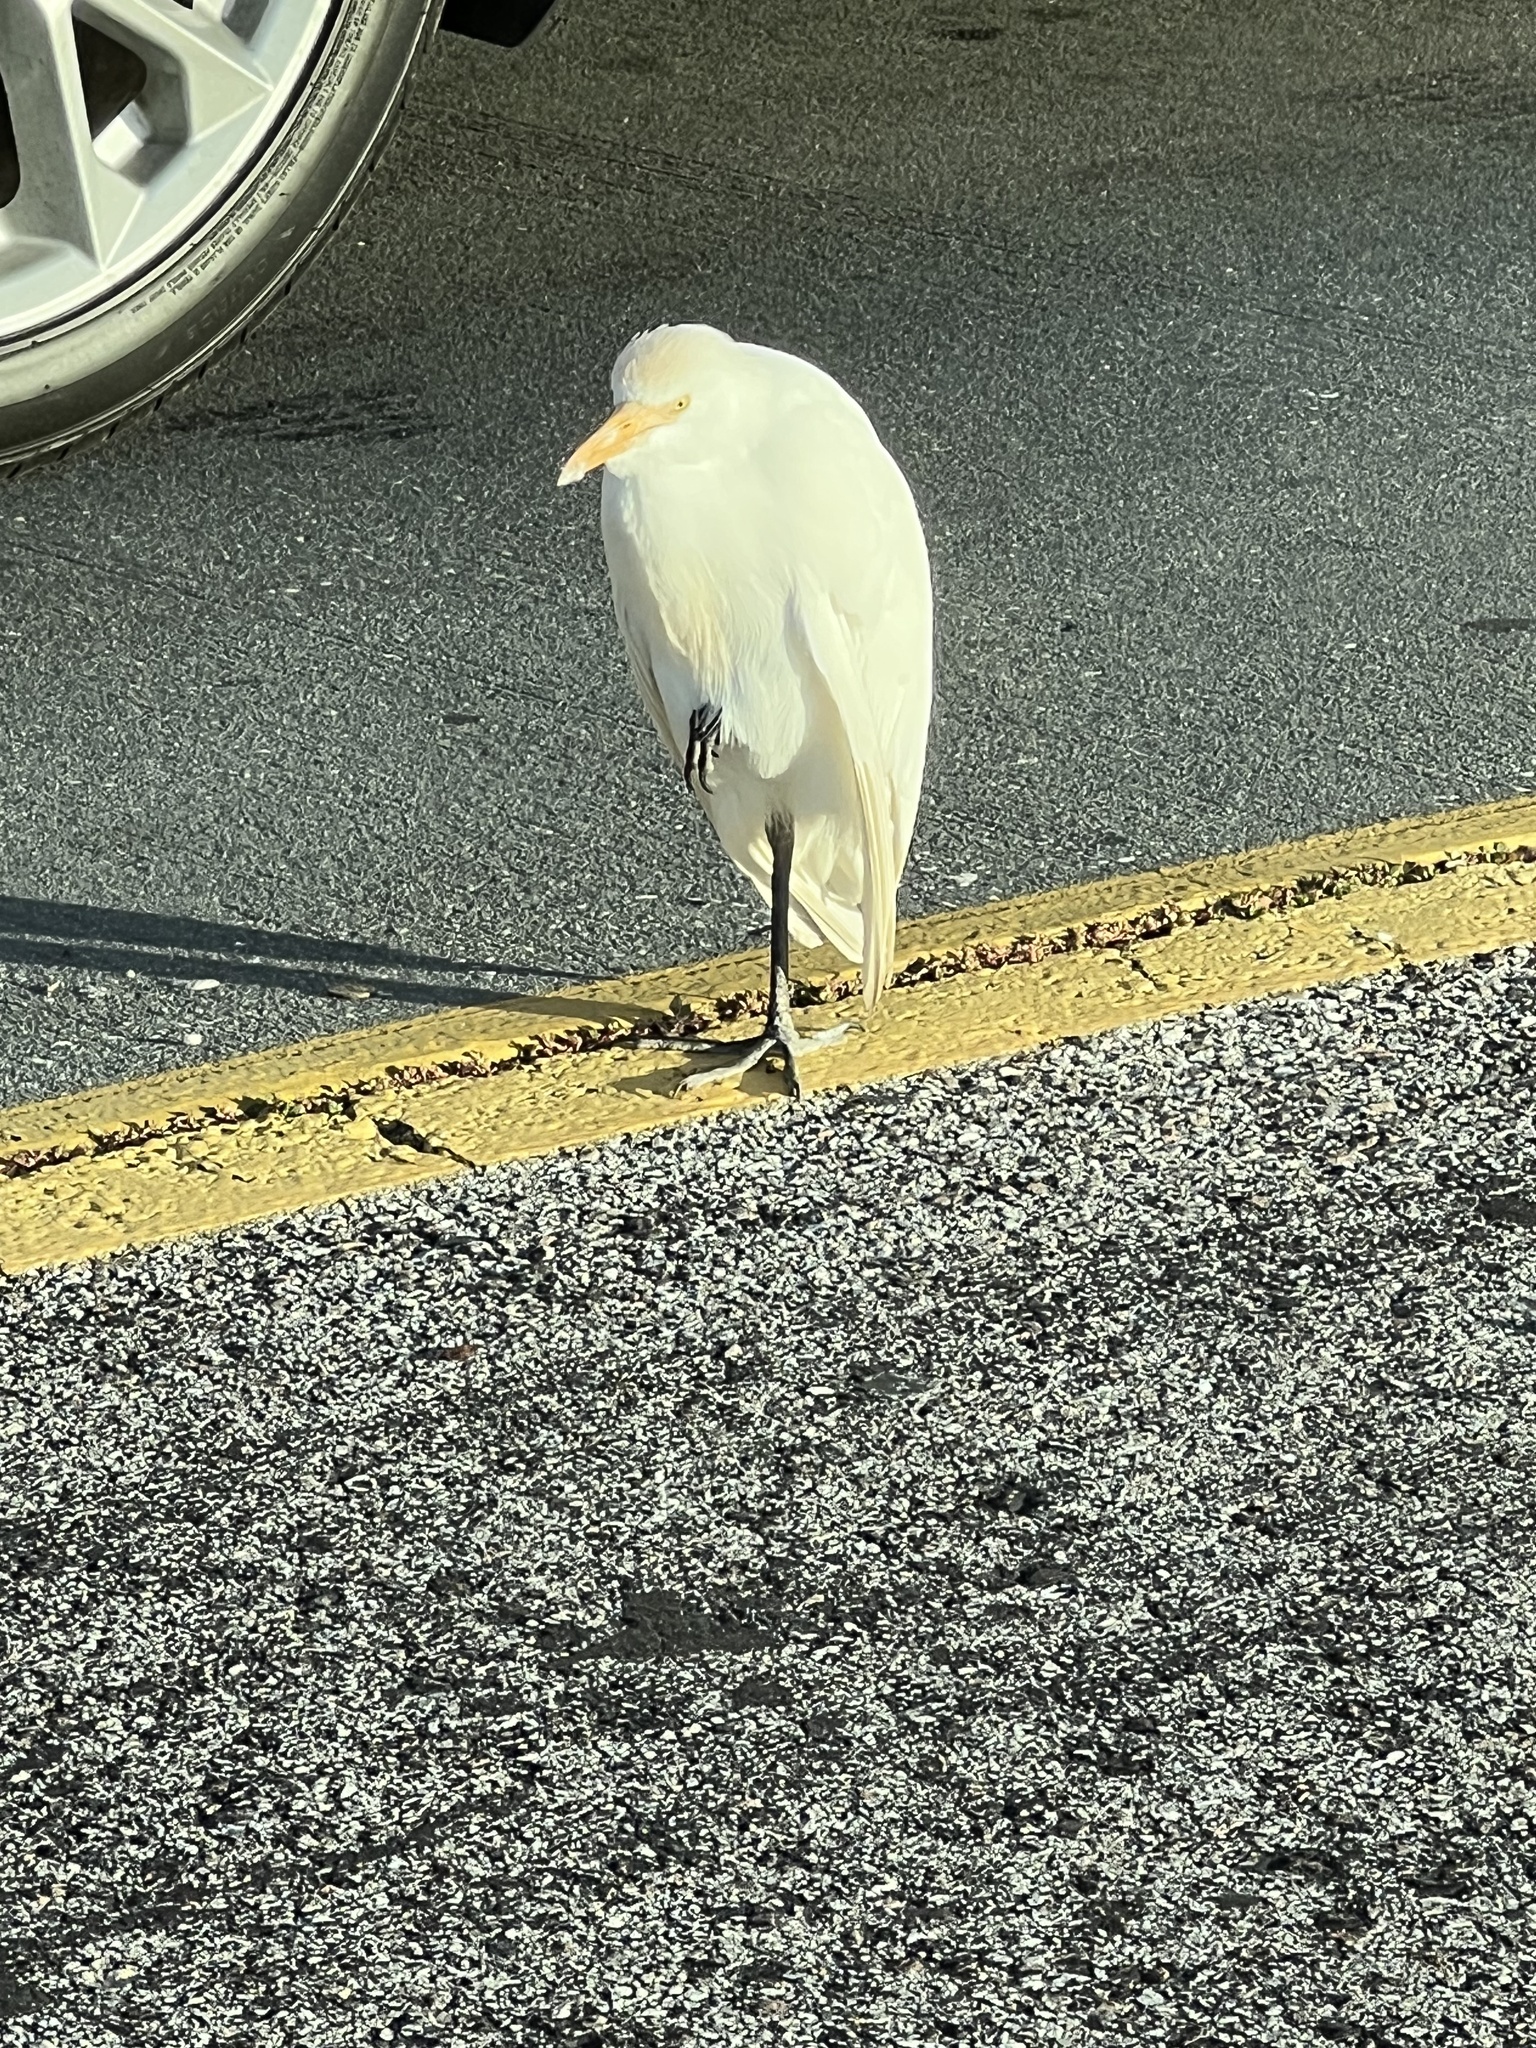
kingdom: Animalia
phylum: Chordata
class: Aves
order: Pelecaniformes
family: Ardeidae
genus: Bubulcus
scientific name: Bubulcus ibis
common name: Cattle egret
